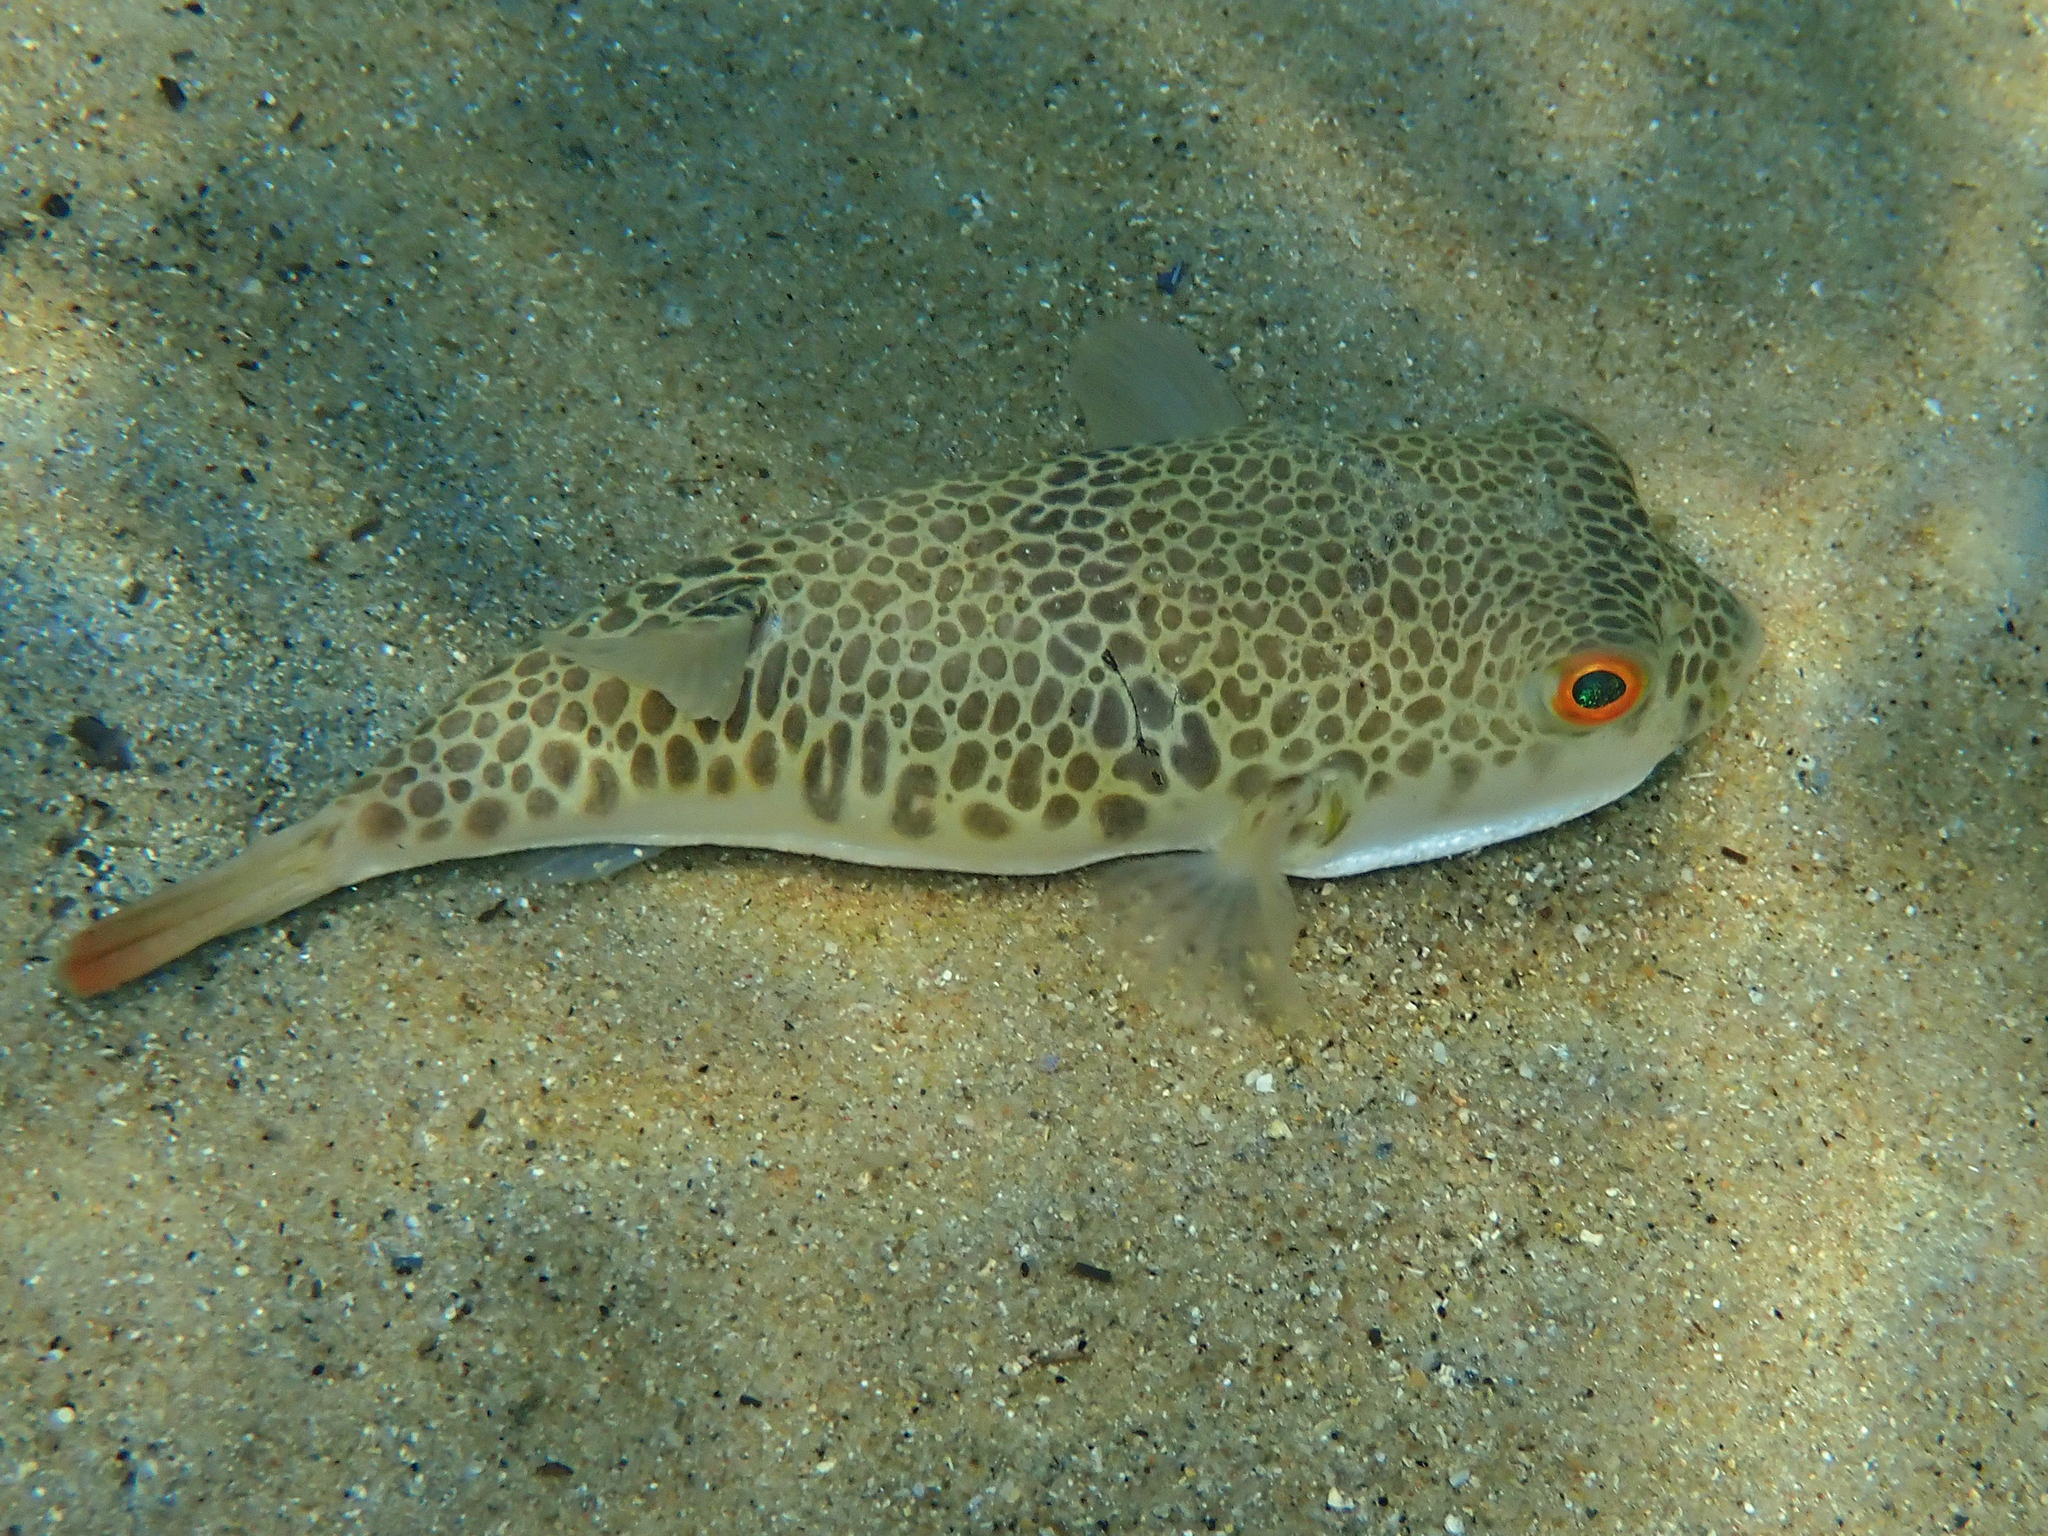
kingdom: Animalia
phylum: Chordata
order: Tetraodontiformes
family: Tetraodontidae
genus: Tetractenos
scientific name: Tetractenos glaber
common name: Smooth toadfish
